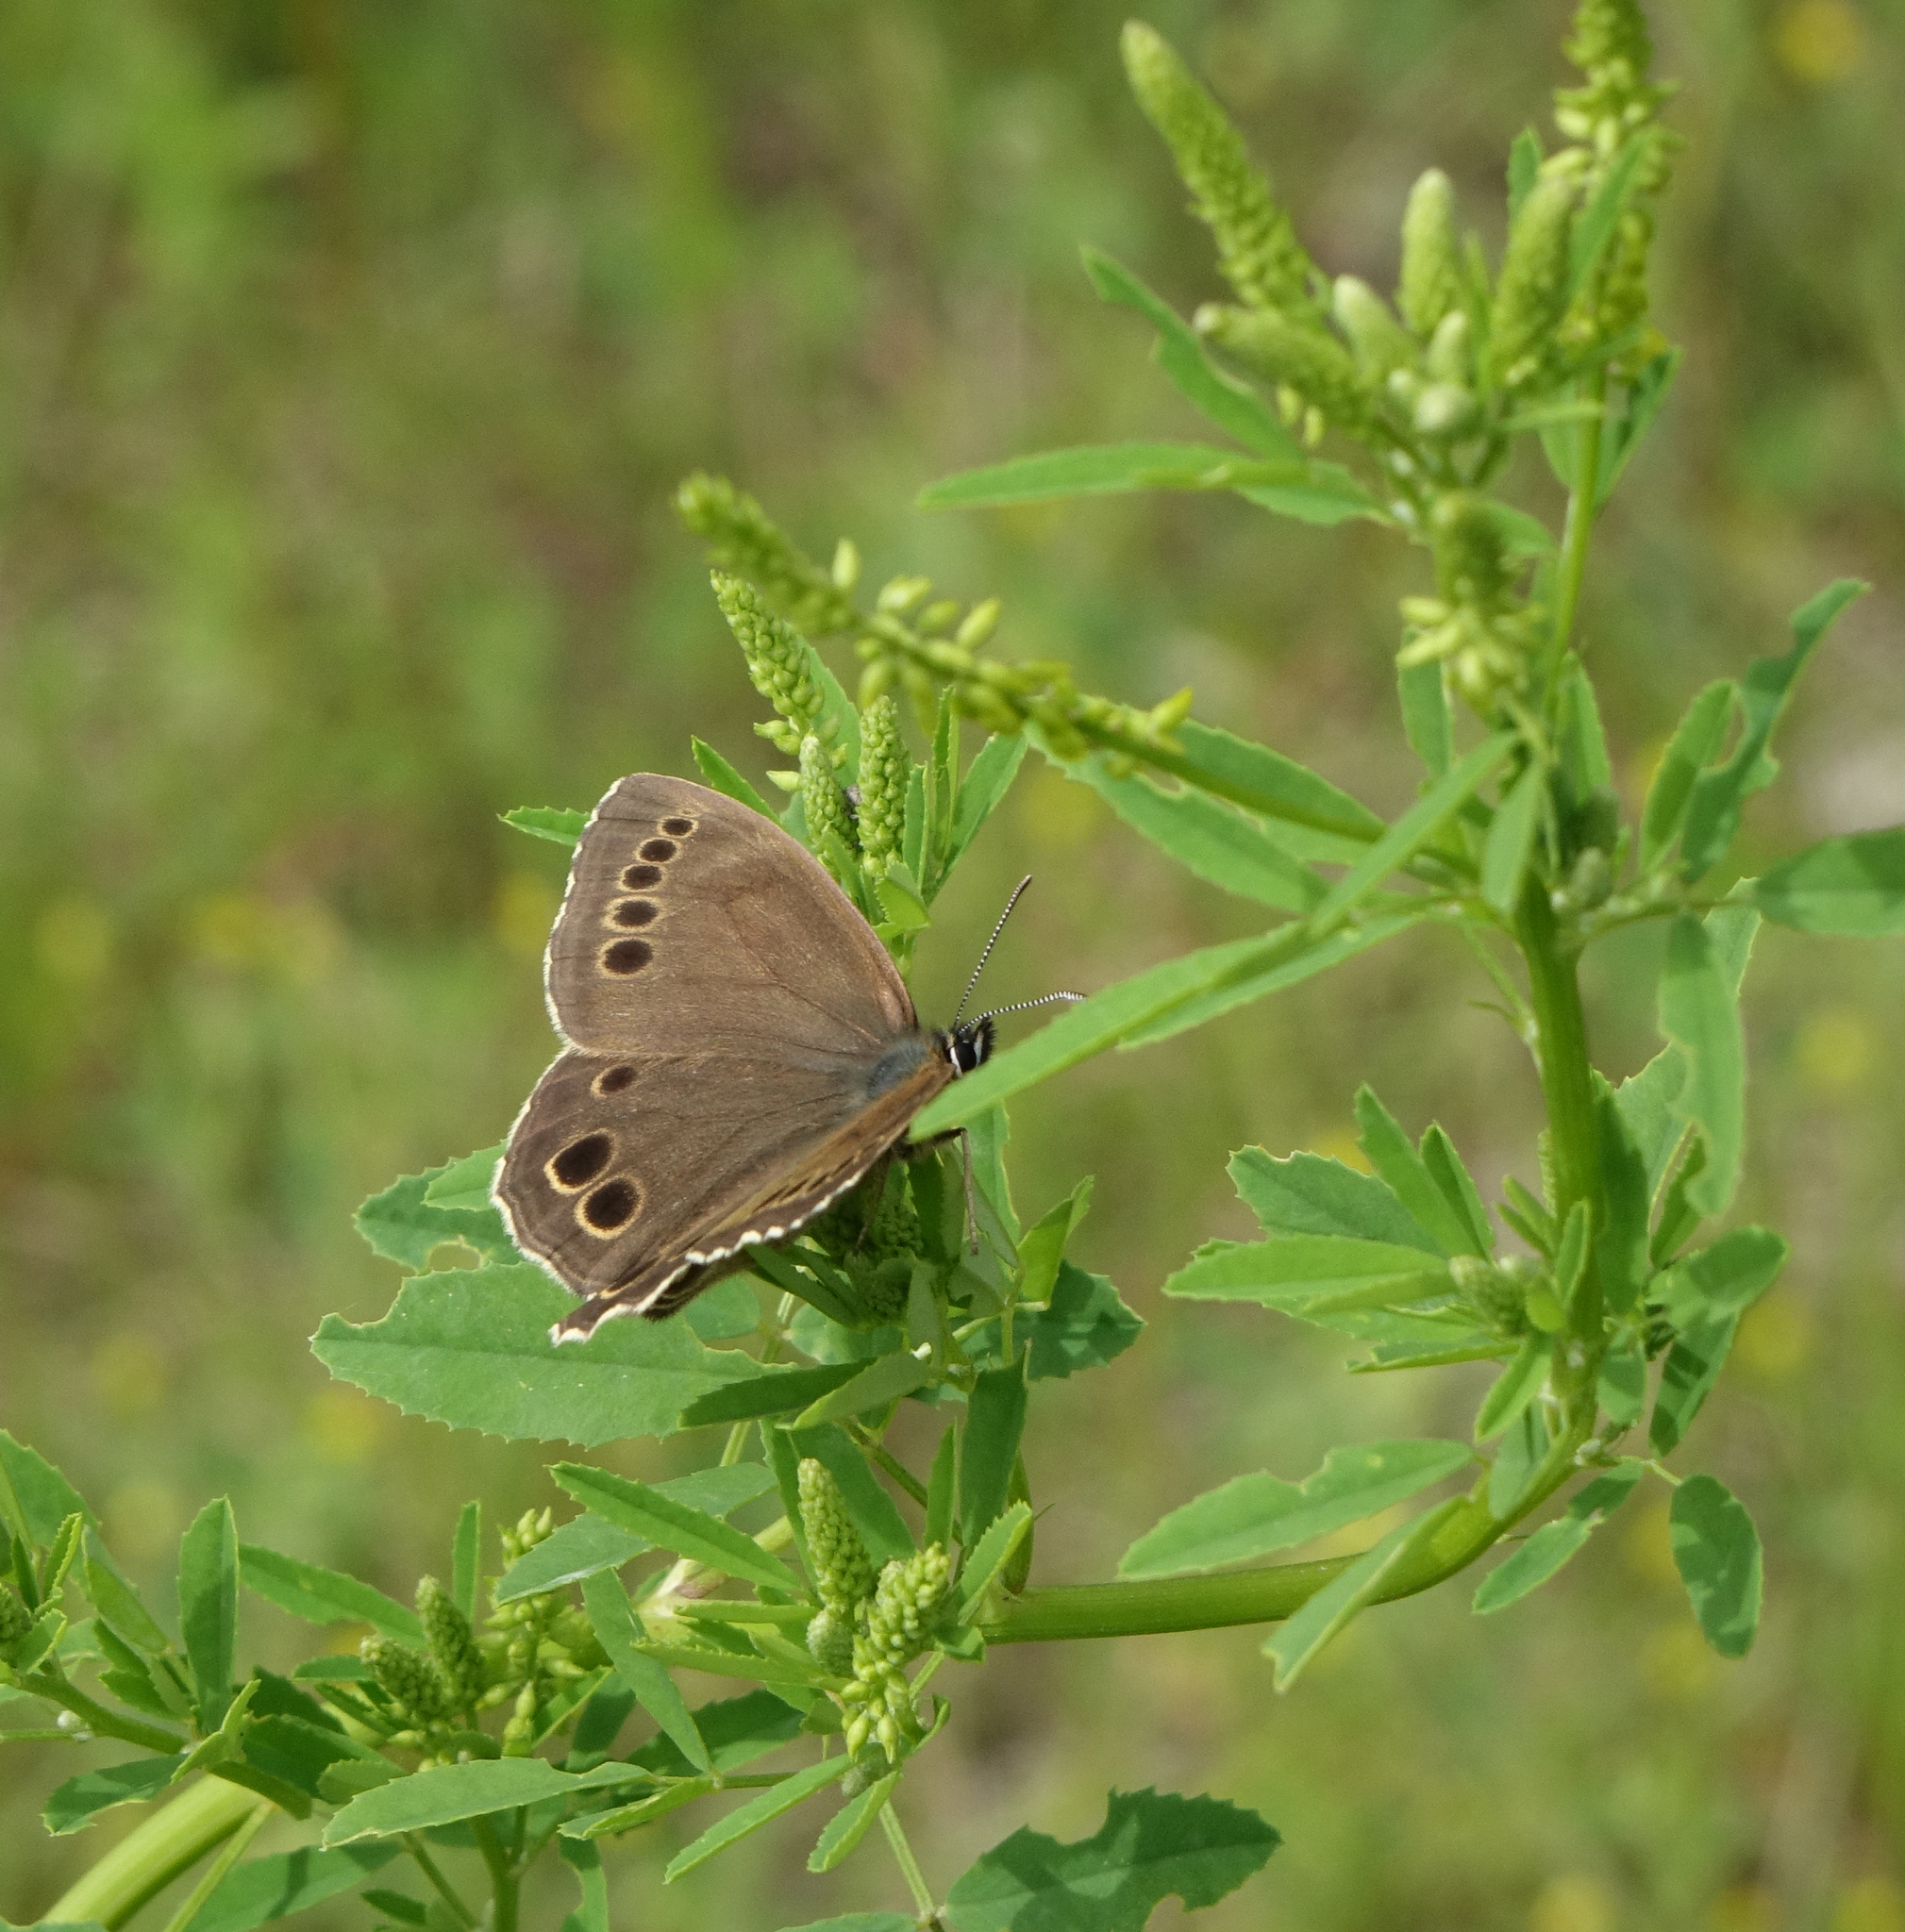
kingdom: Animalia
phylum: Arthropoda
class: Insecta
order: Lepidoptera
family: Nymphalidae
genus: Pararge
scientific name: Pararge Lopinga achine
